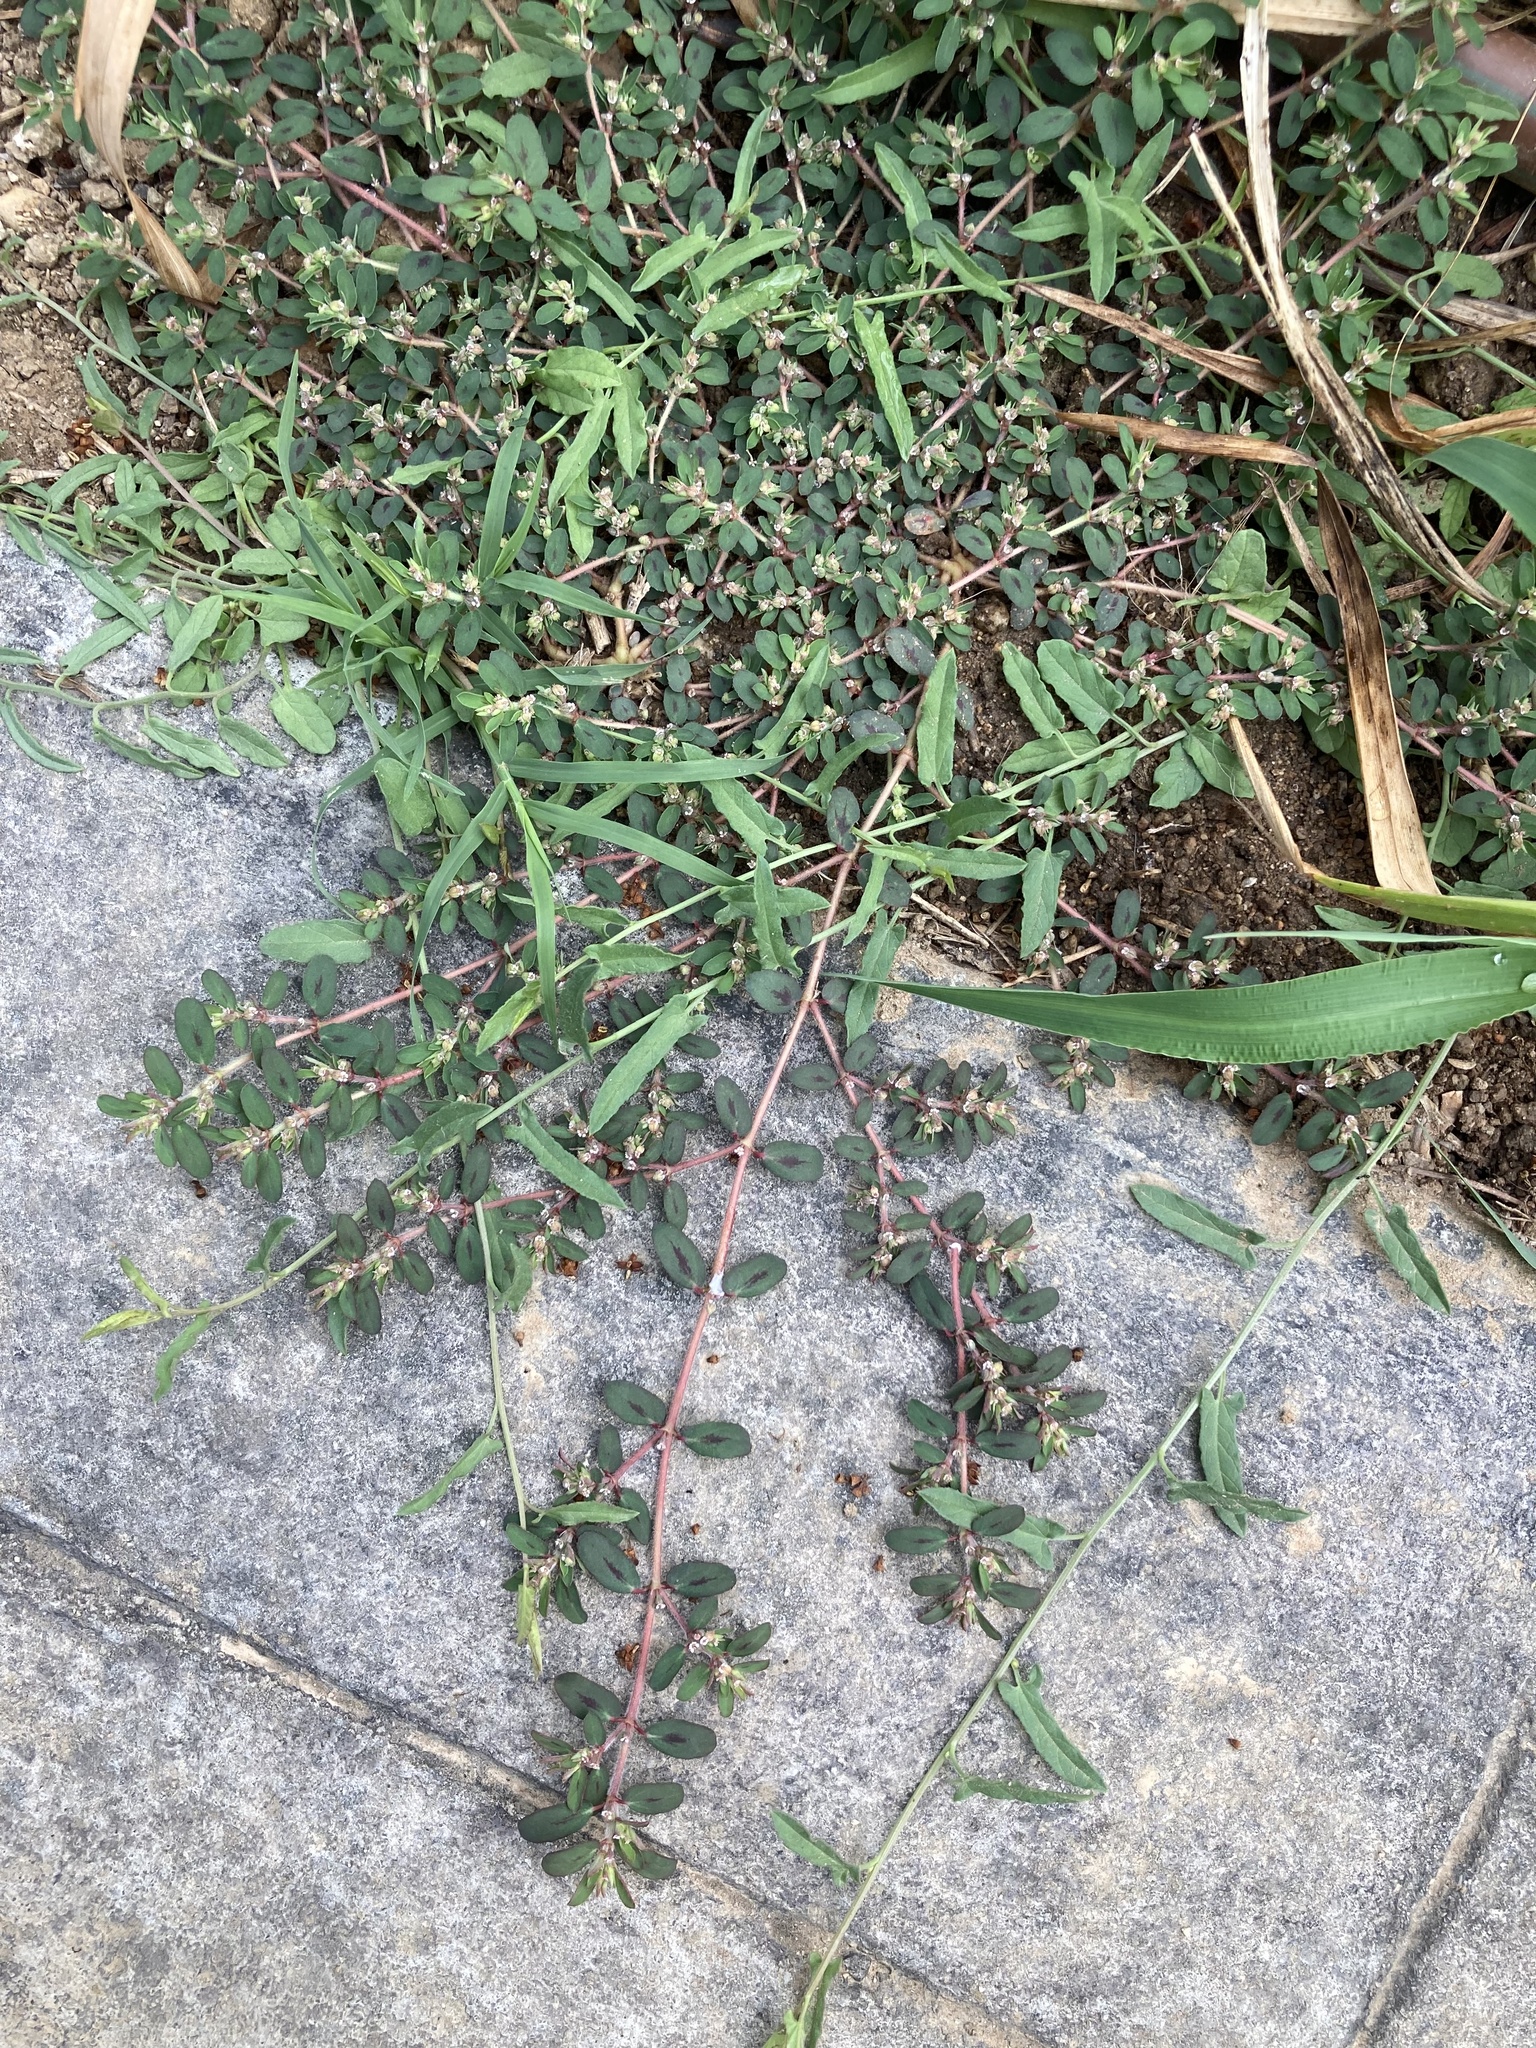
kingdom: Plantae
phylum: Tracheophyta
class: Magnoliopsida
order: Malpighiales
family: Euphorbiaceae
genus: Euphorbia
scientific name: Euphorbia maculata
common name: Spotted spurge
